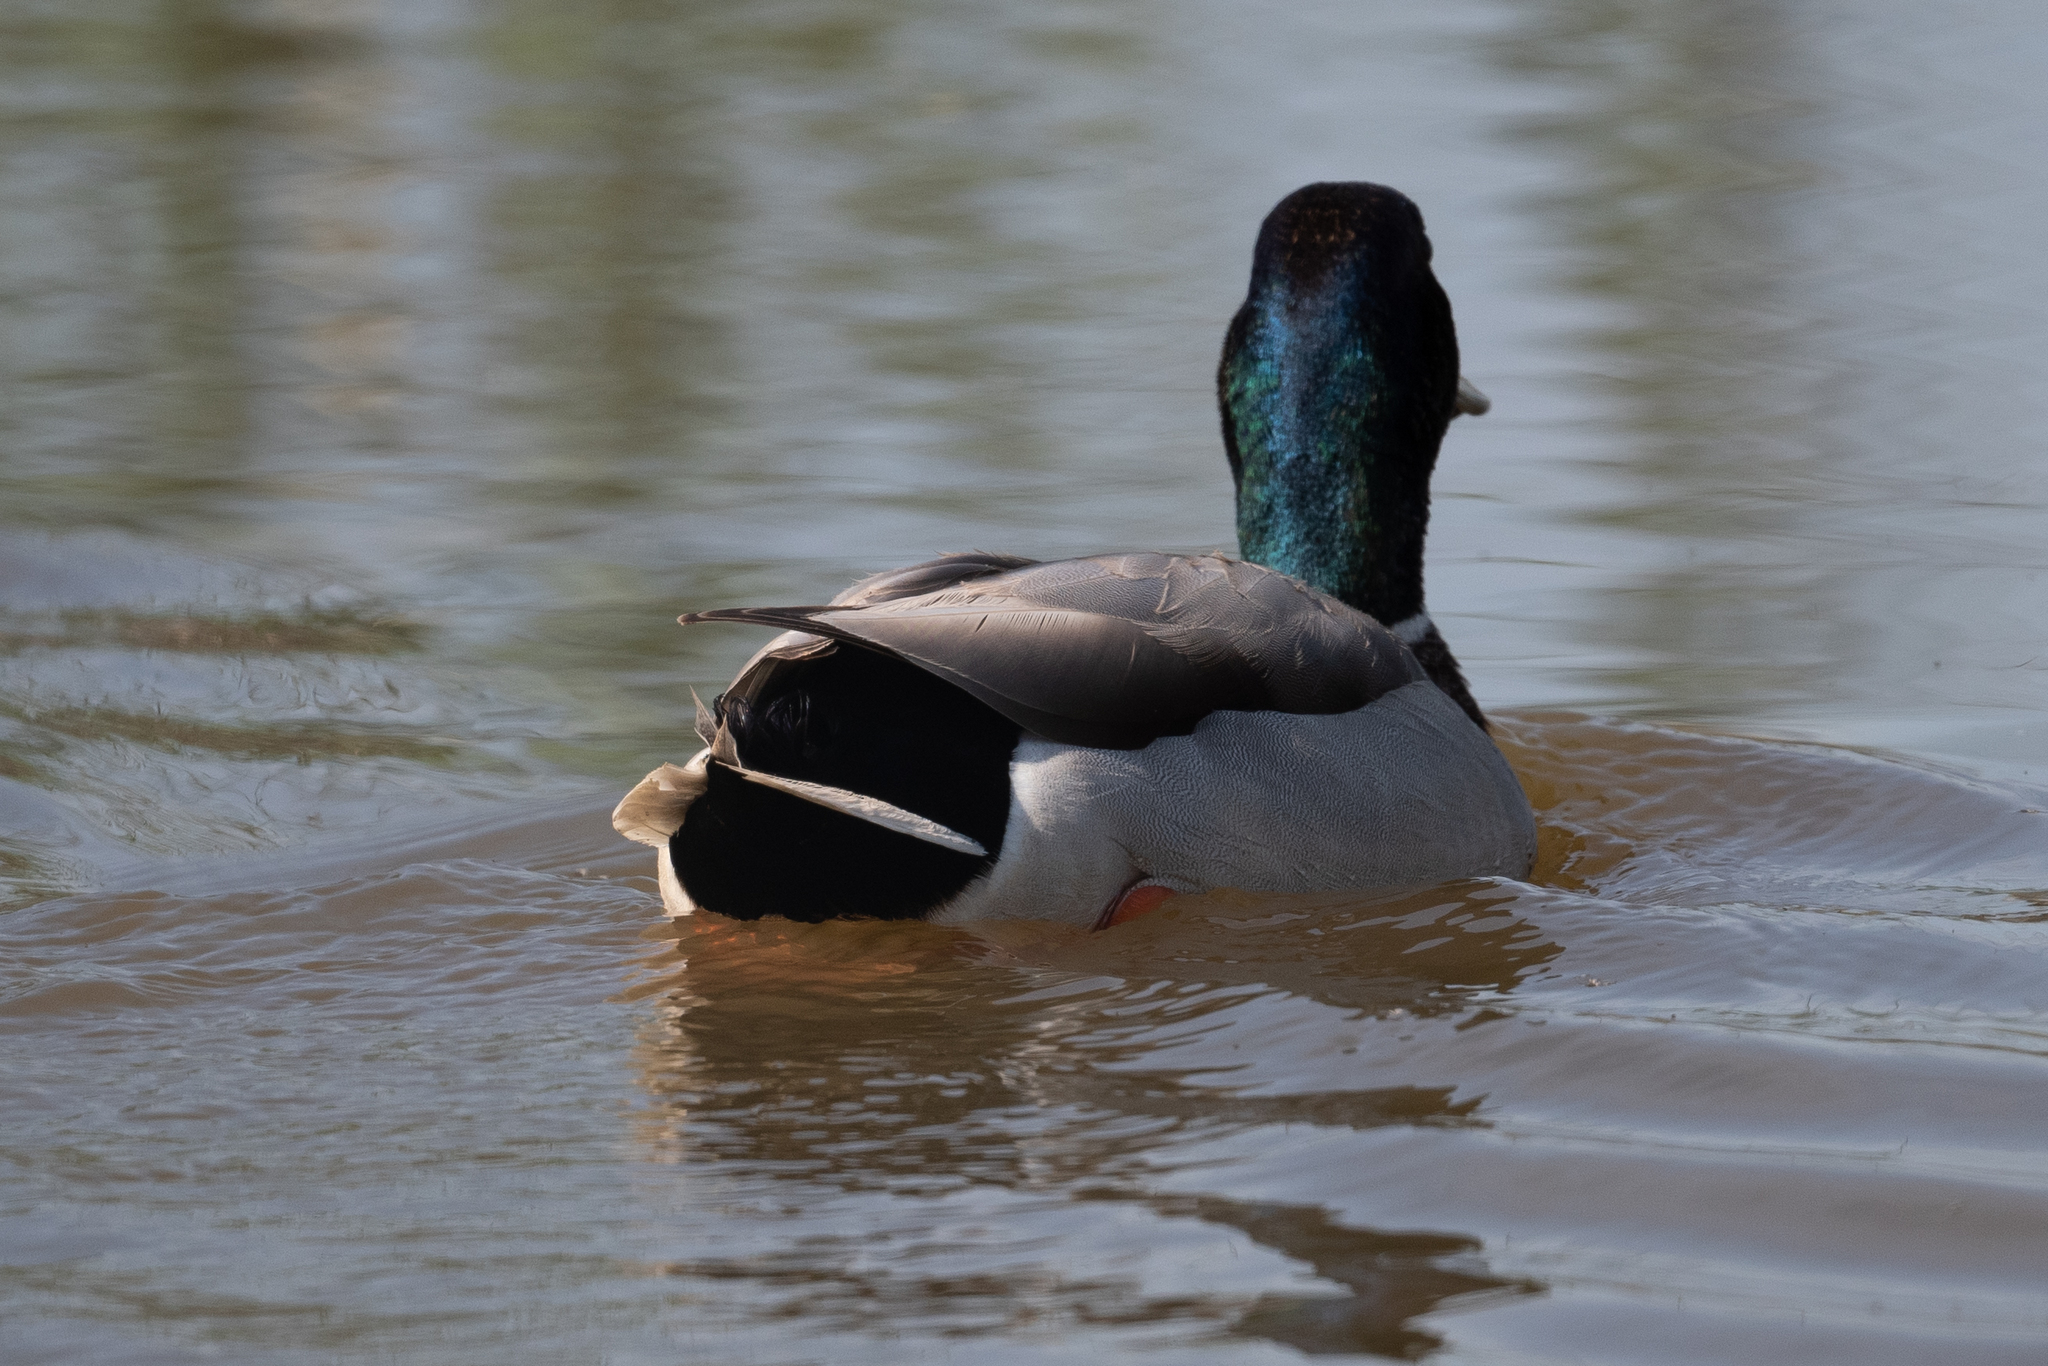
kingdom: Animalia
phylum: Chordata
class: Aves
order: Anseriformes
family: Anatidae
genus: Anas
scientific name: Anas platyrhynchos
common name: Mallard
